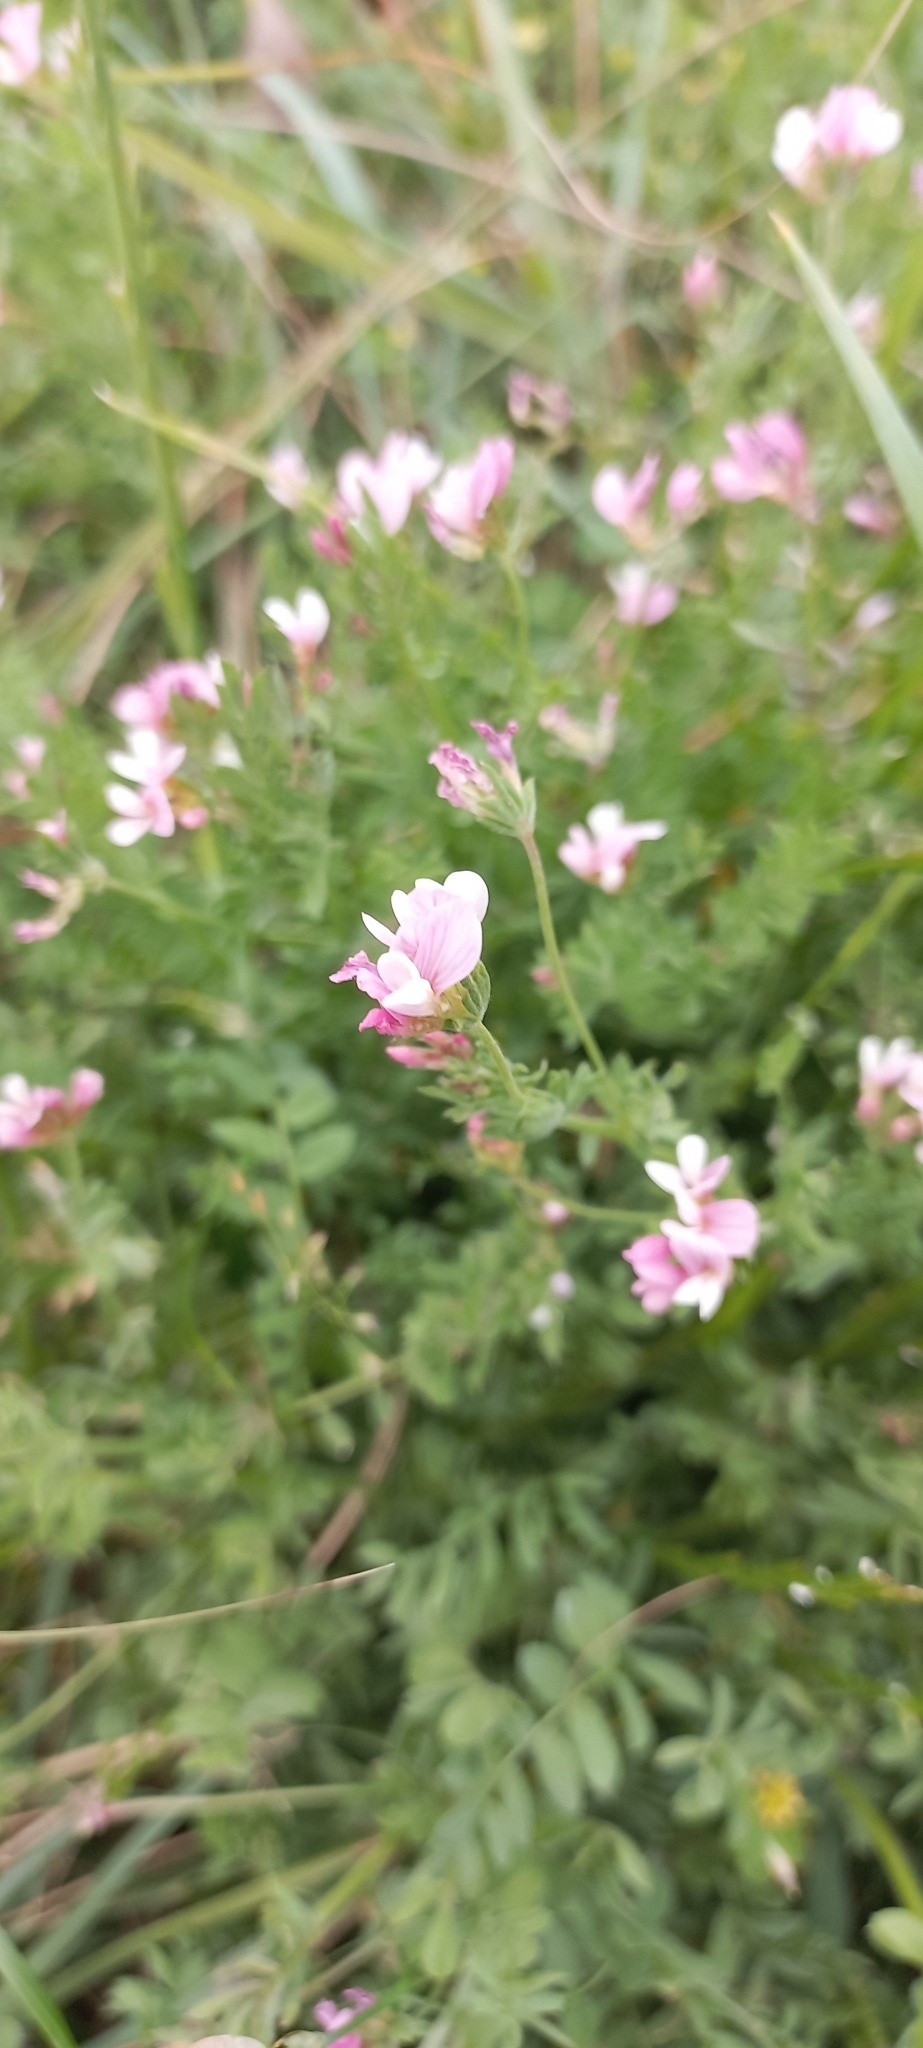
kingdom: Plantae
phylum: Tracheophyta
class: Magnoliopsida
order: Fabales
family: Fabaceae
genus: Ornithopus
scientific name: Ornithopus sativus
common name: Serradella
